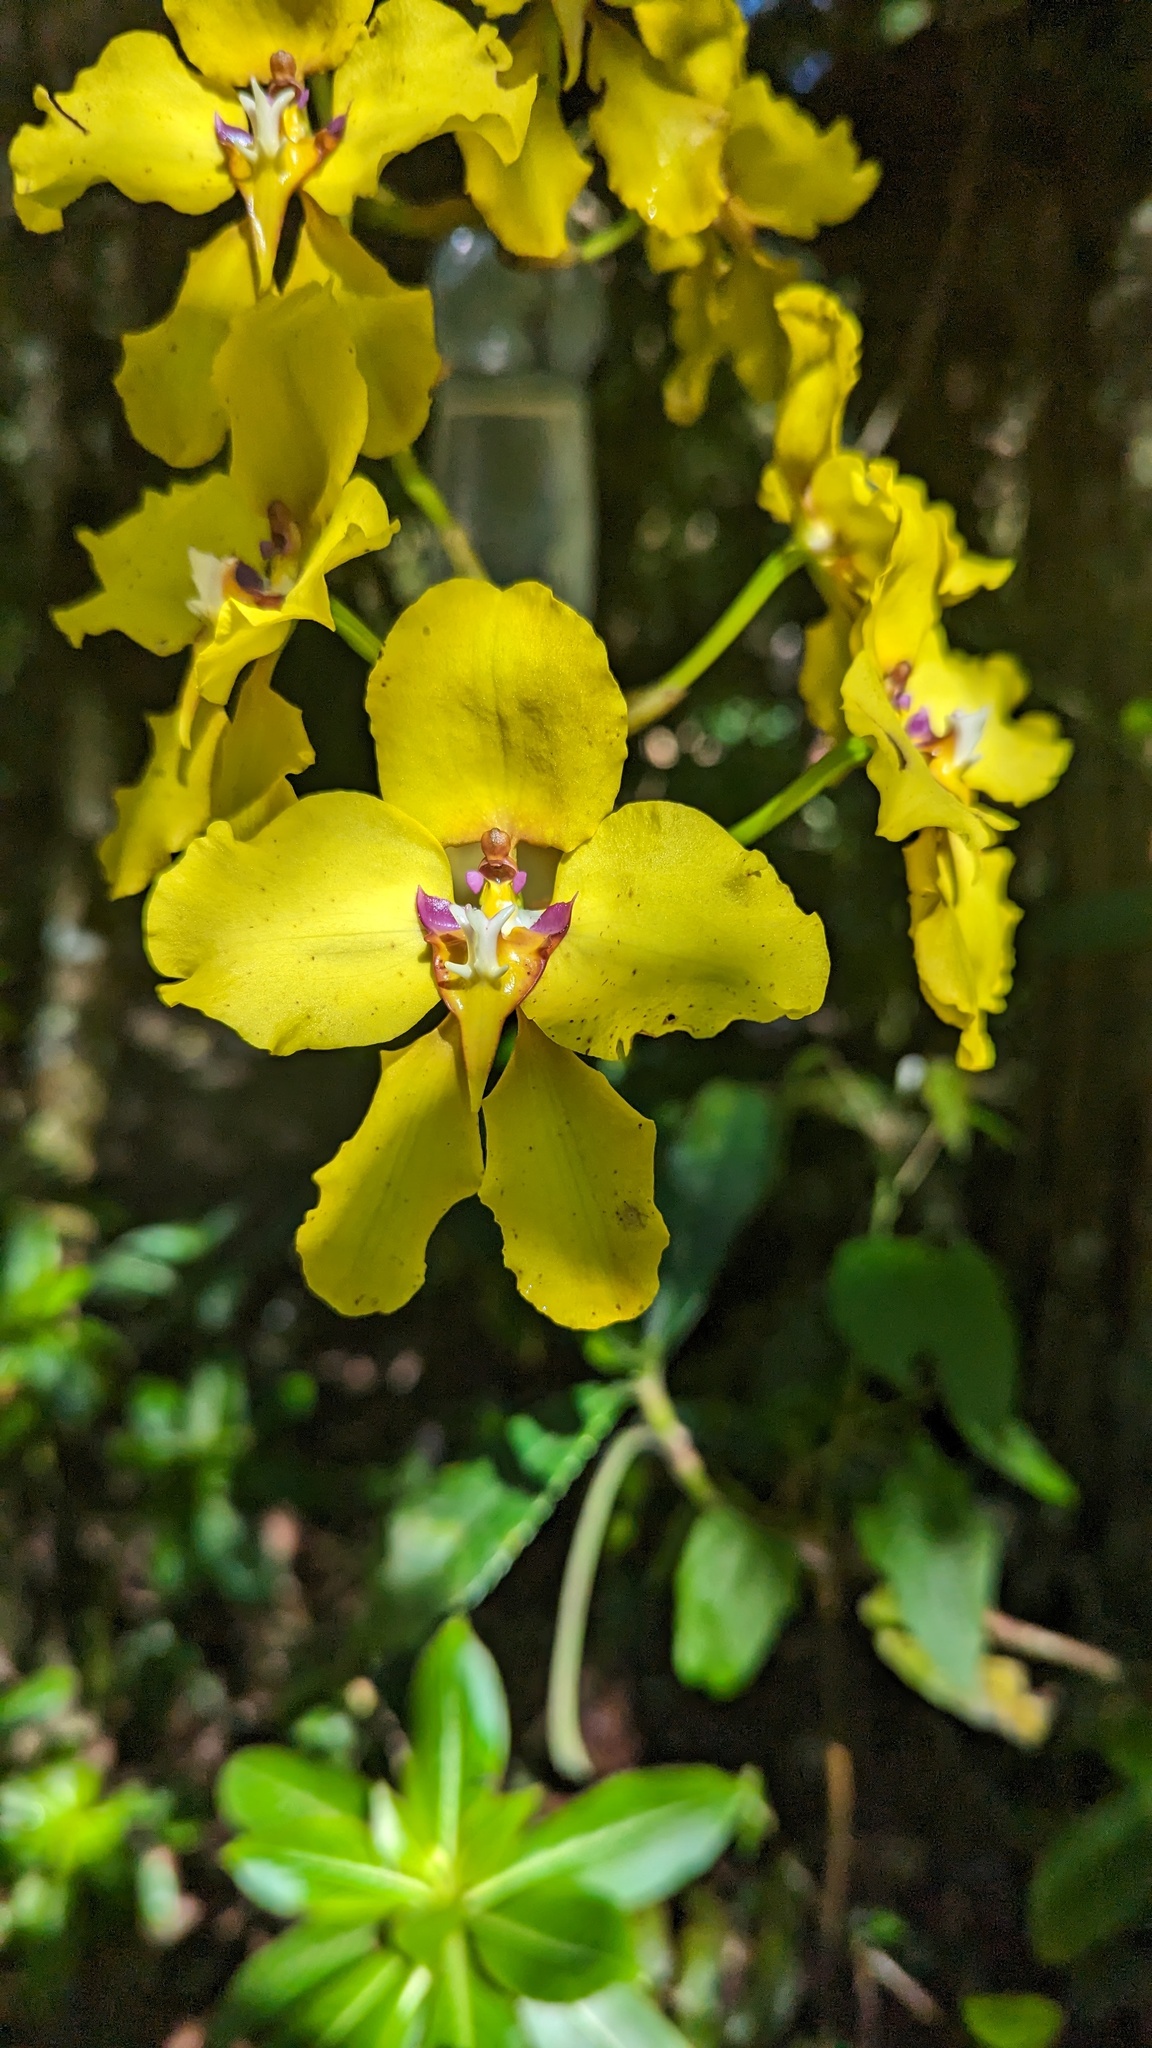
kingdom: Plantae
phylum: Tracheophyta
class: Liliopsida
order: Asparagales
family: Orchidaceae
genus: Cyrtochilum
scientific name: Cyrtochilum macranthum
